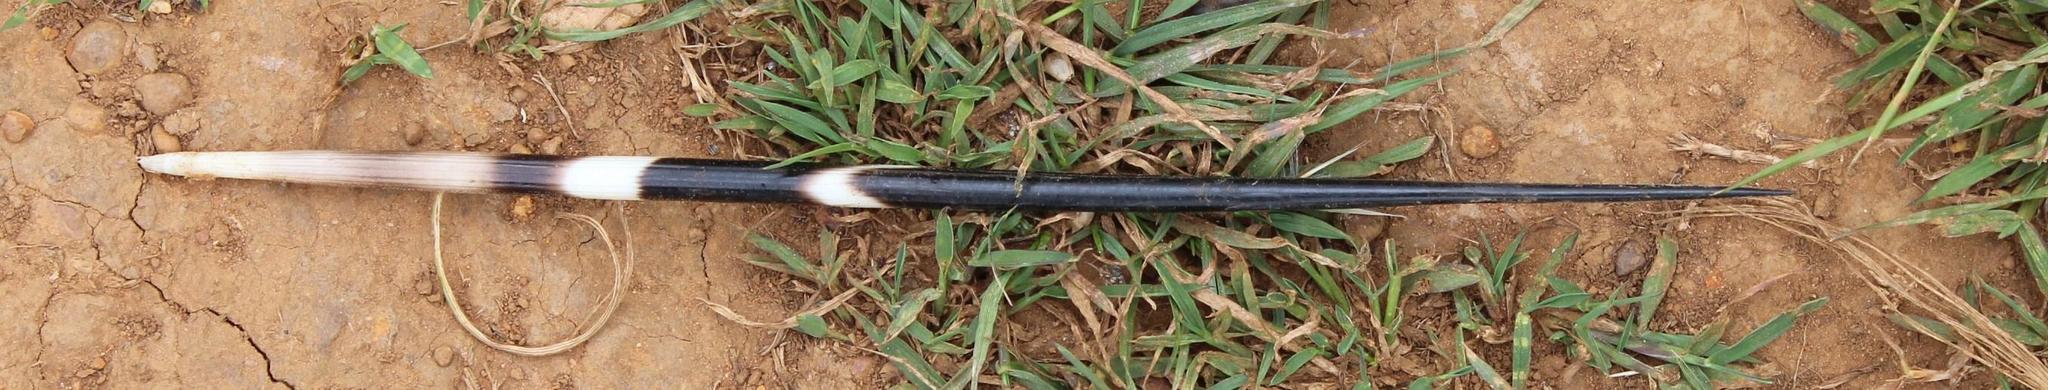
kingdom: Animalia
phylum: Chordata
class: Mammalia
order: Rodentia
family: Hystricidae
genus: Hystrix
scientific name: Hystrix africaeaustralis
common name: Cape porcupine
